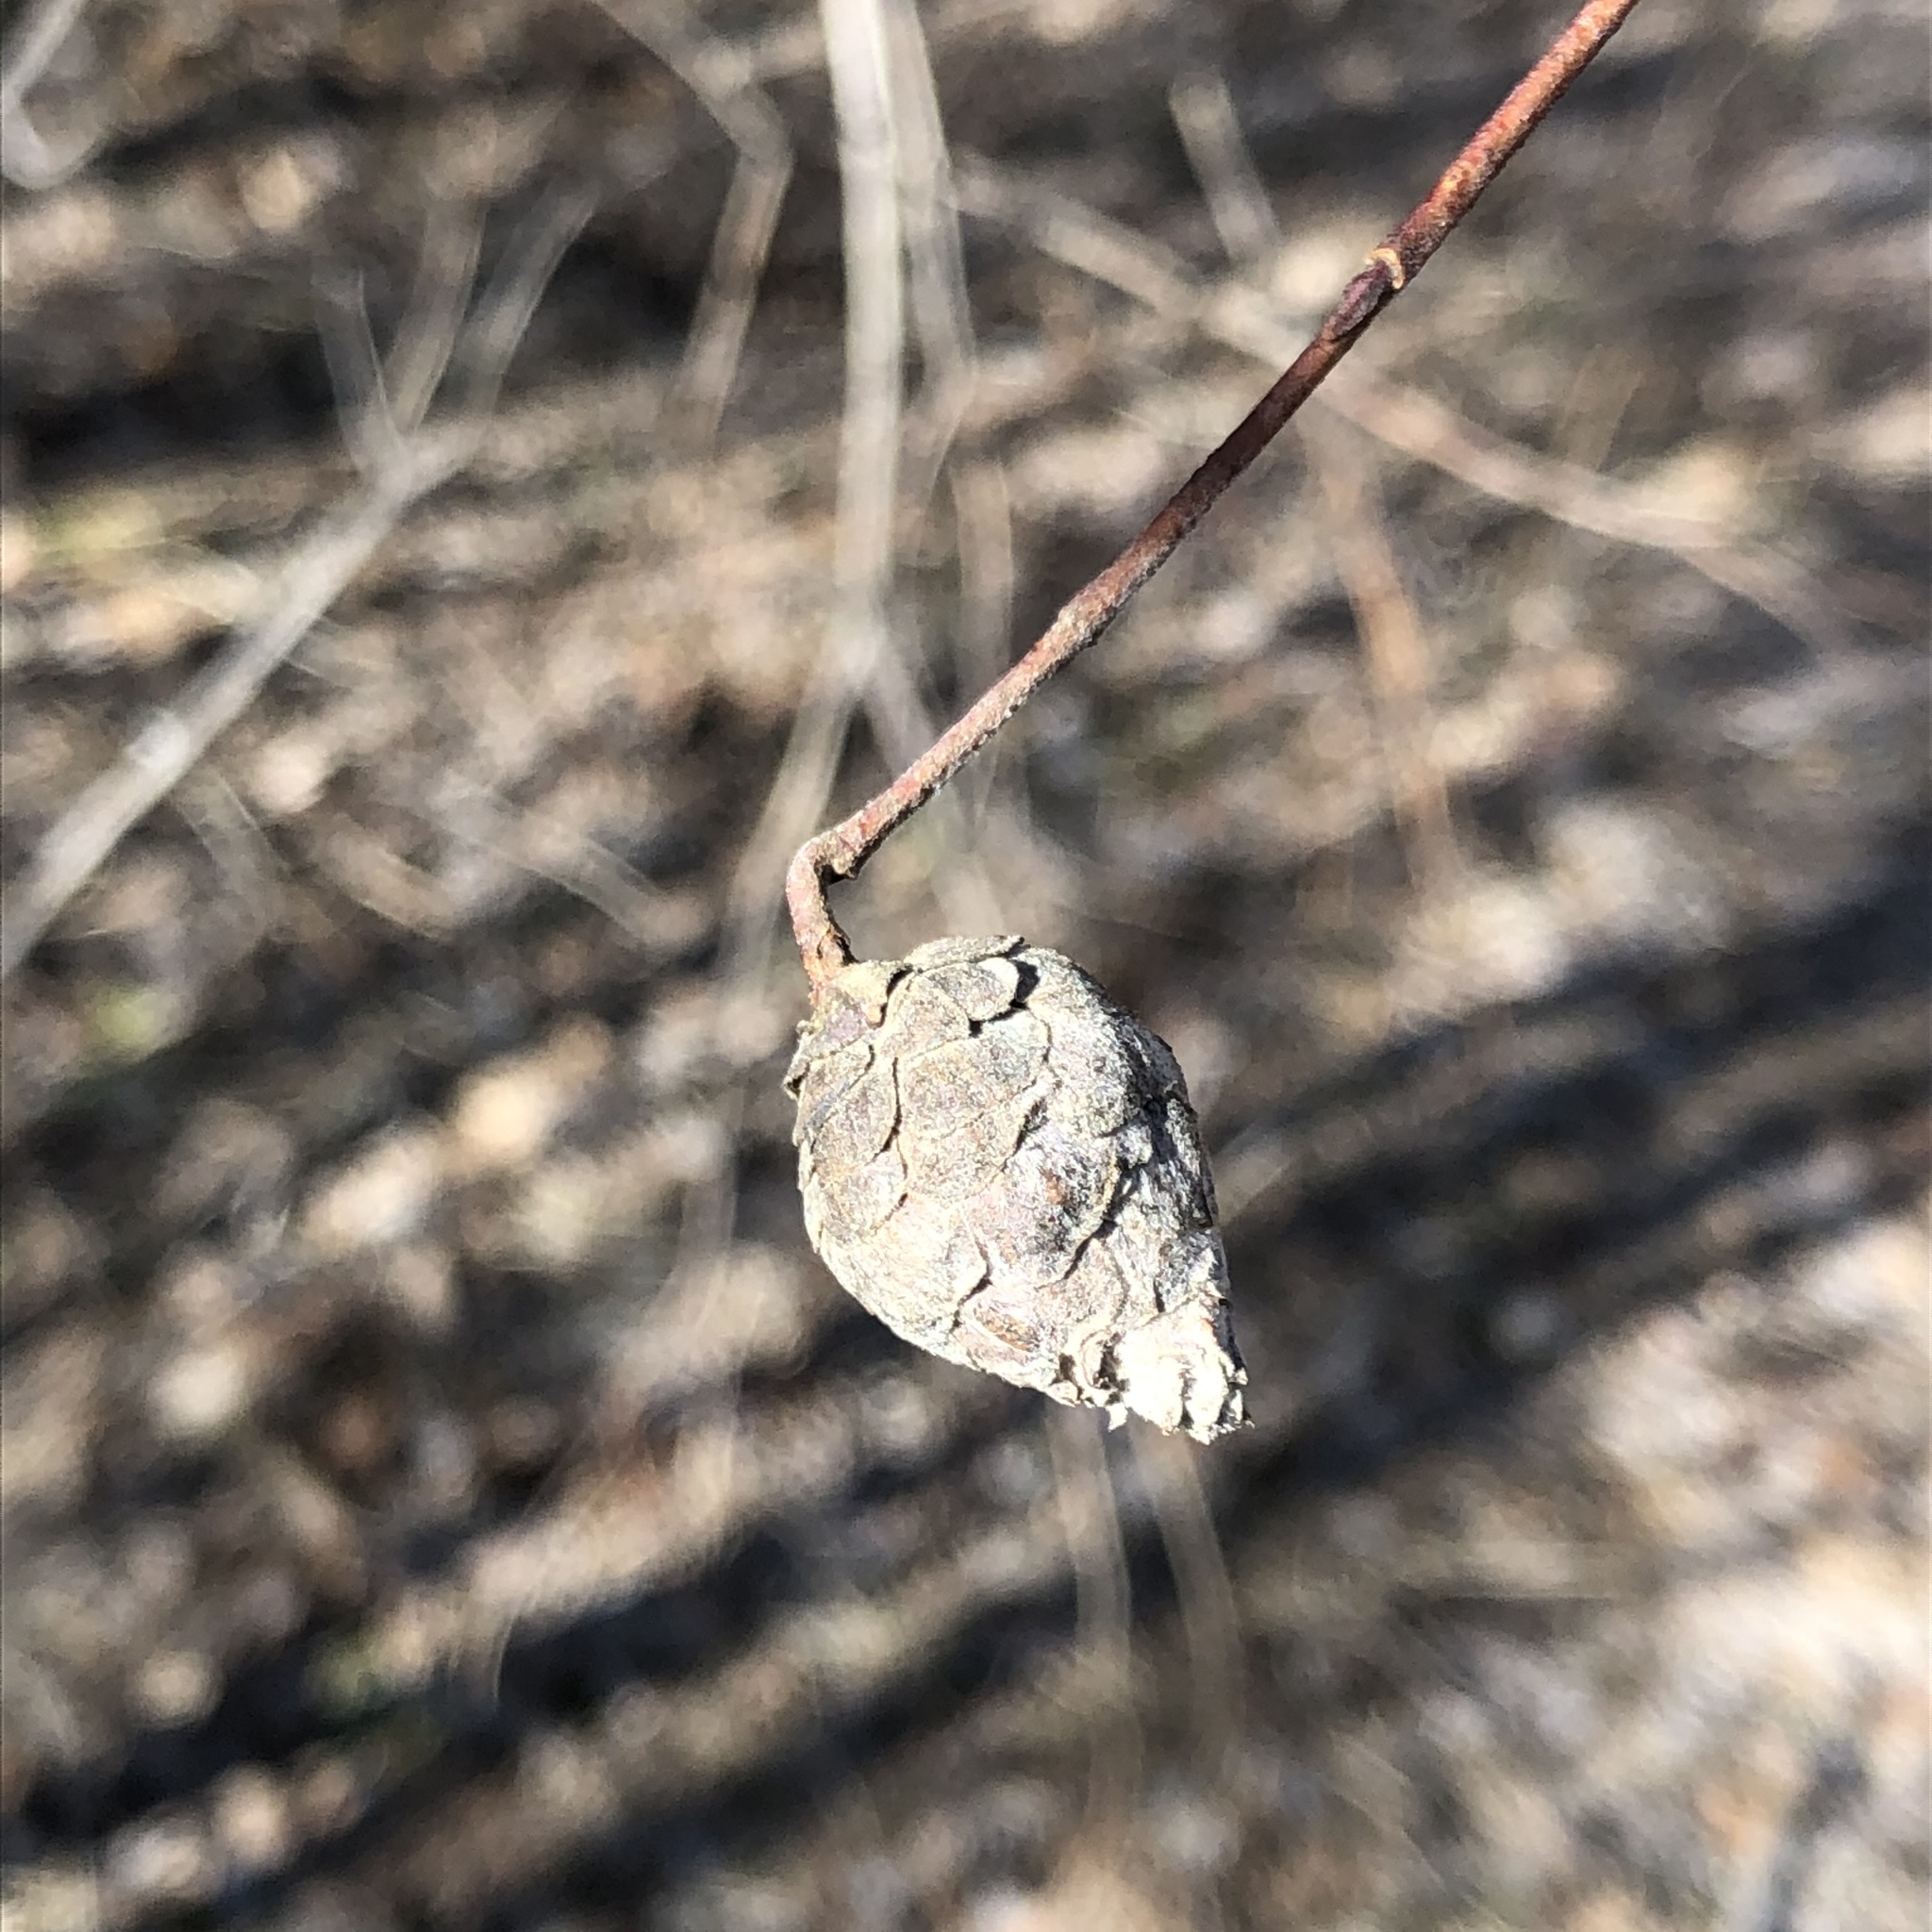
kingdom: Animalia
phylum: Arthropoda
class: Insecta
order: Diptera
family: Cecidomyiidae
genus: Rabdophaga
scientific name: Rabdophaga strobiloides
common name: Willow pinecone gall midge
